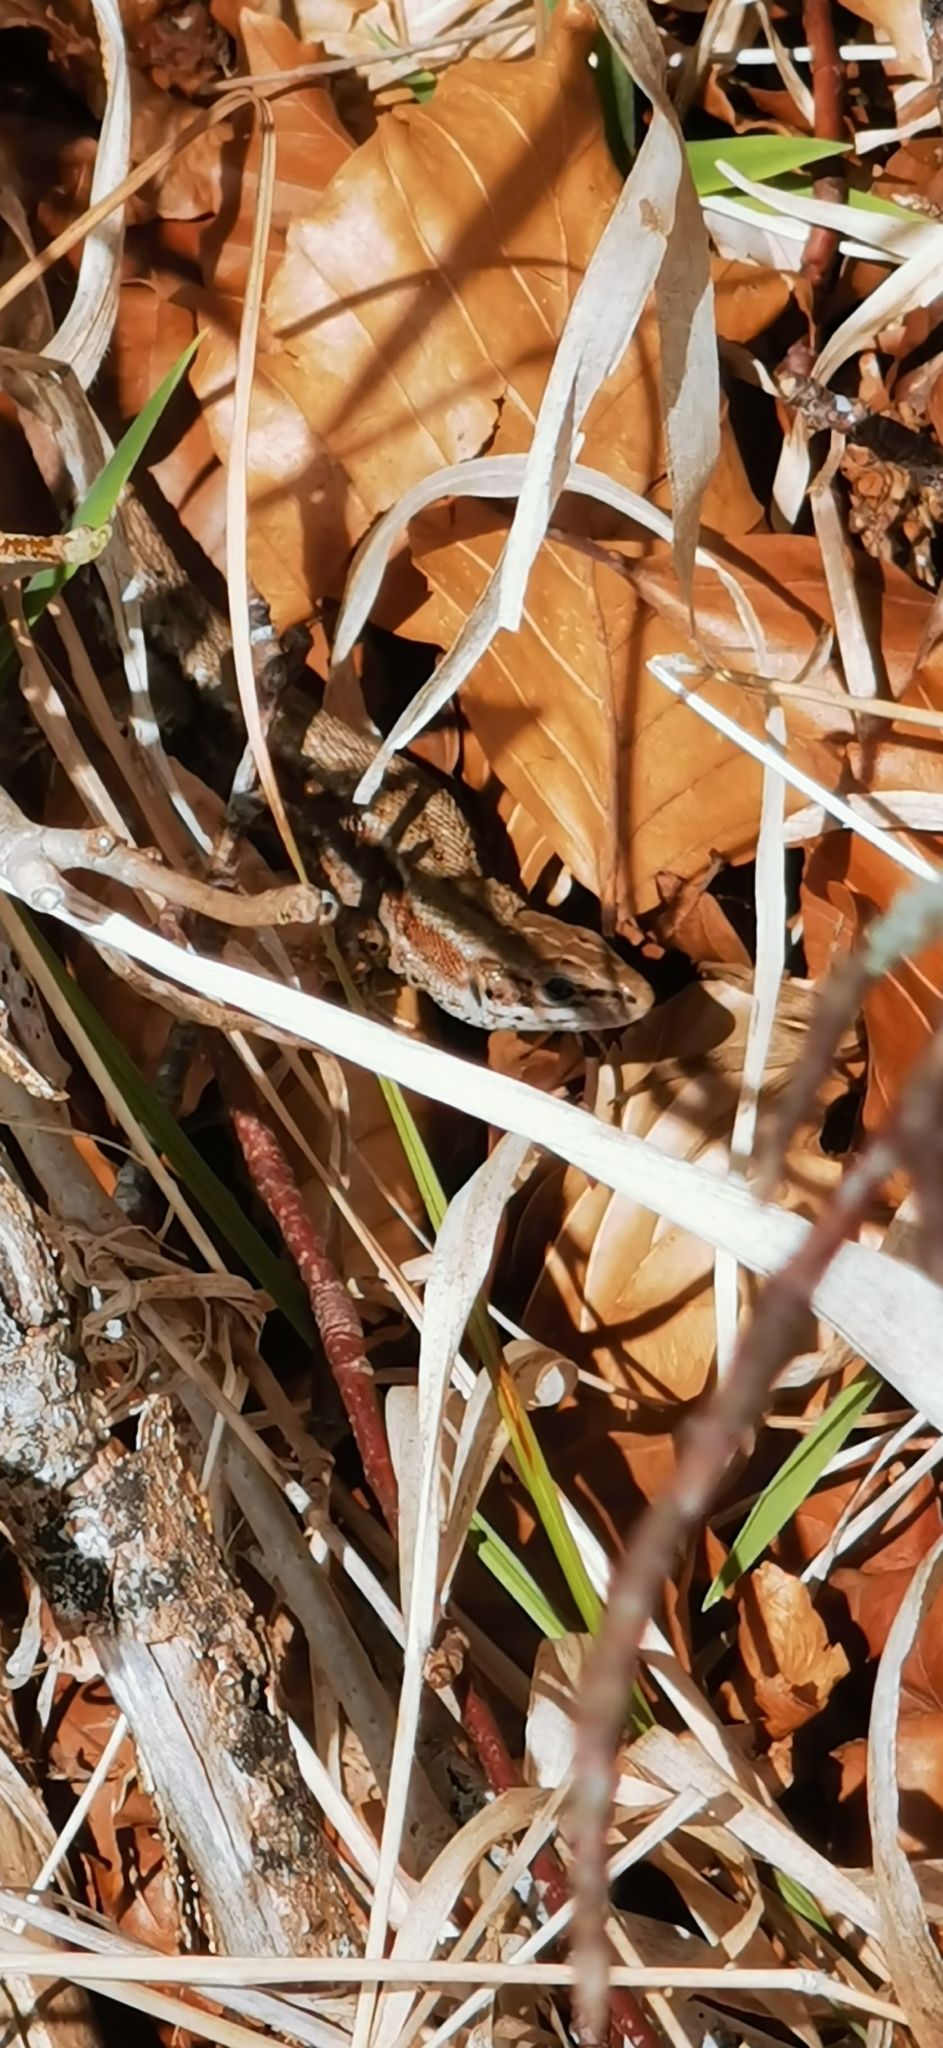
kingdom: Animalia
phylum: Chordata
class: Squamata
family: Lacertidae
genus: Zootoca
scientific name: Zootoca vivipara
